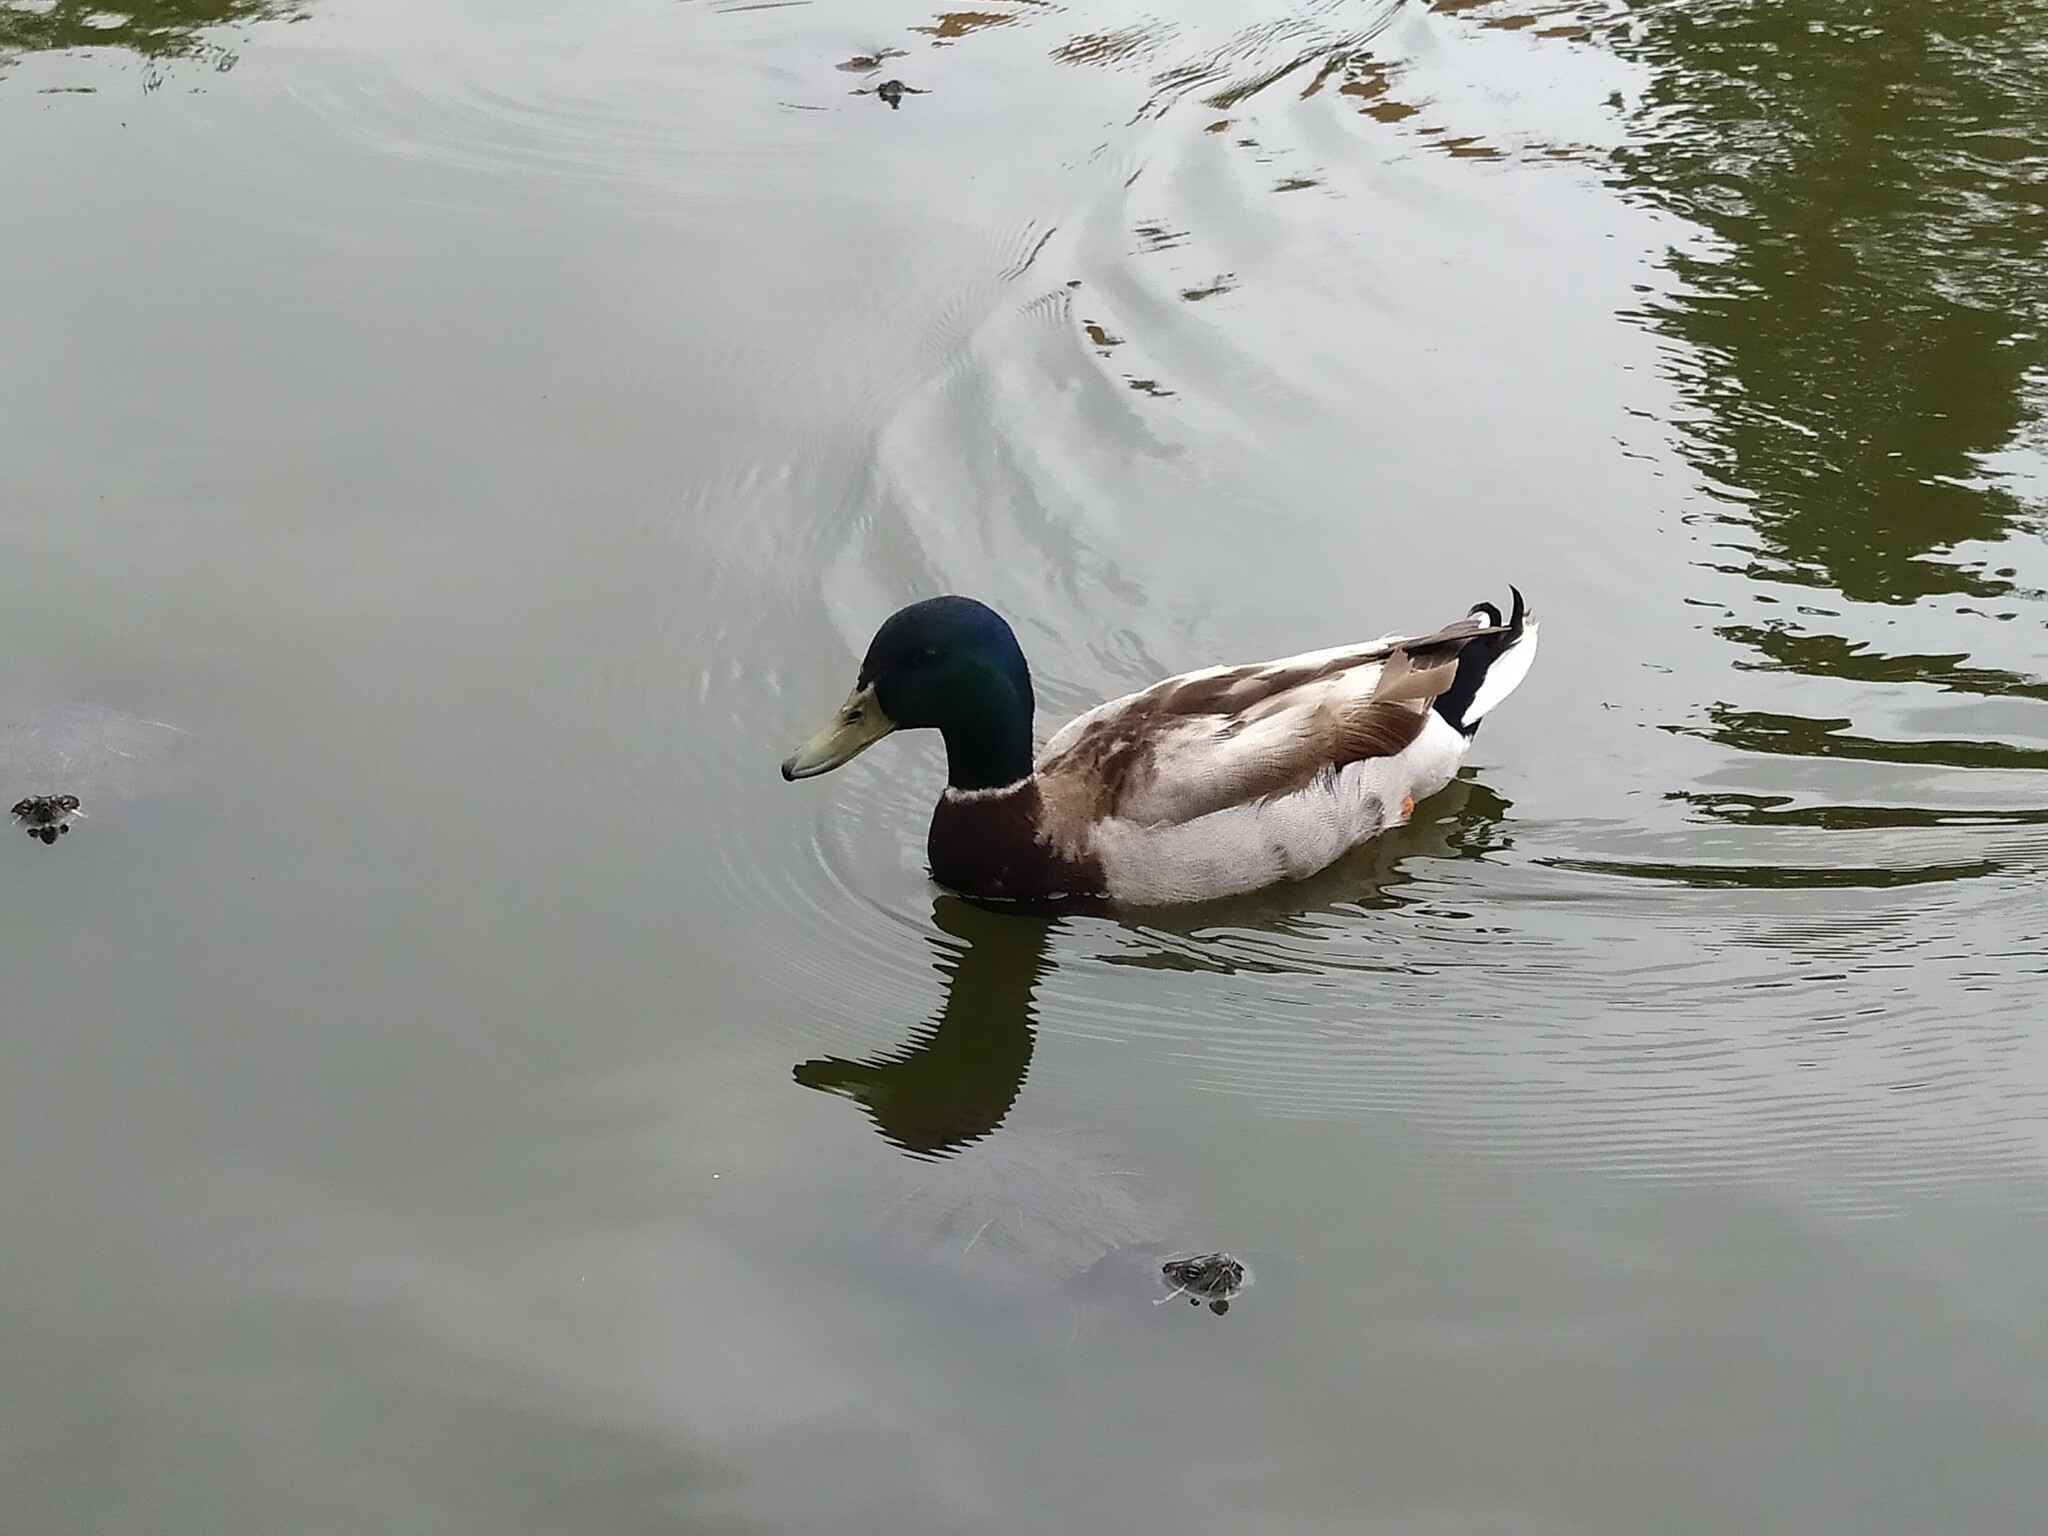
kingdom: Animalia
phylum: Chordata
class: Aves
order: Anseriformes
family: Anatidae
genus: Anas
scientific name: Anas platyrhynchos
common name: Mallard
